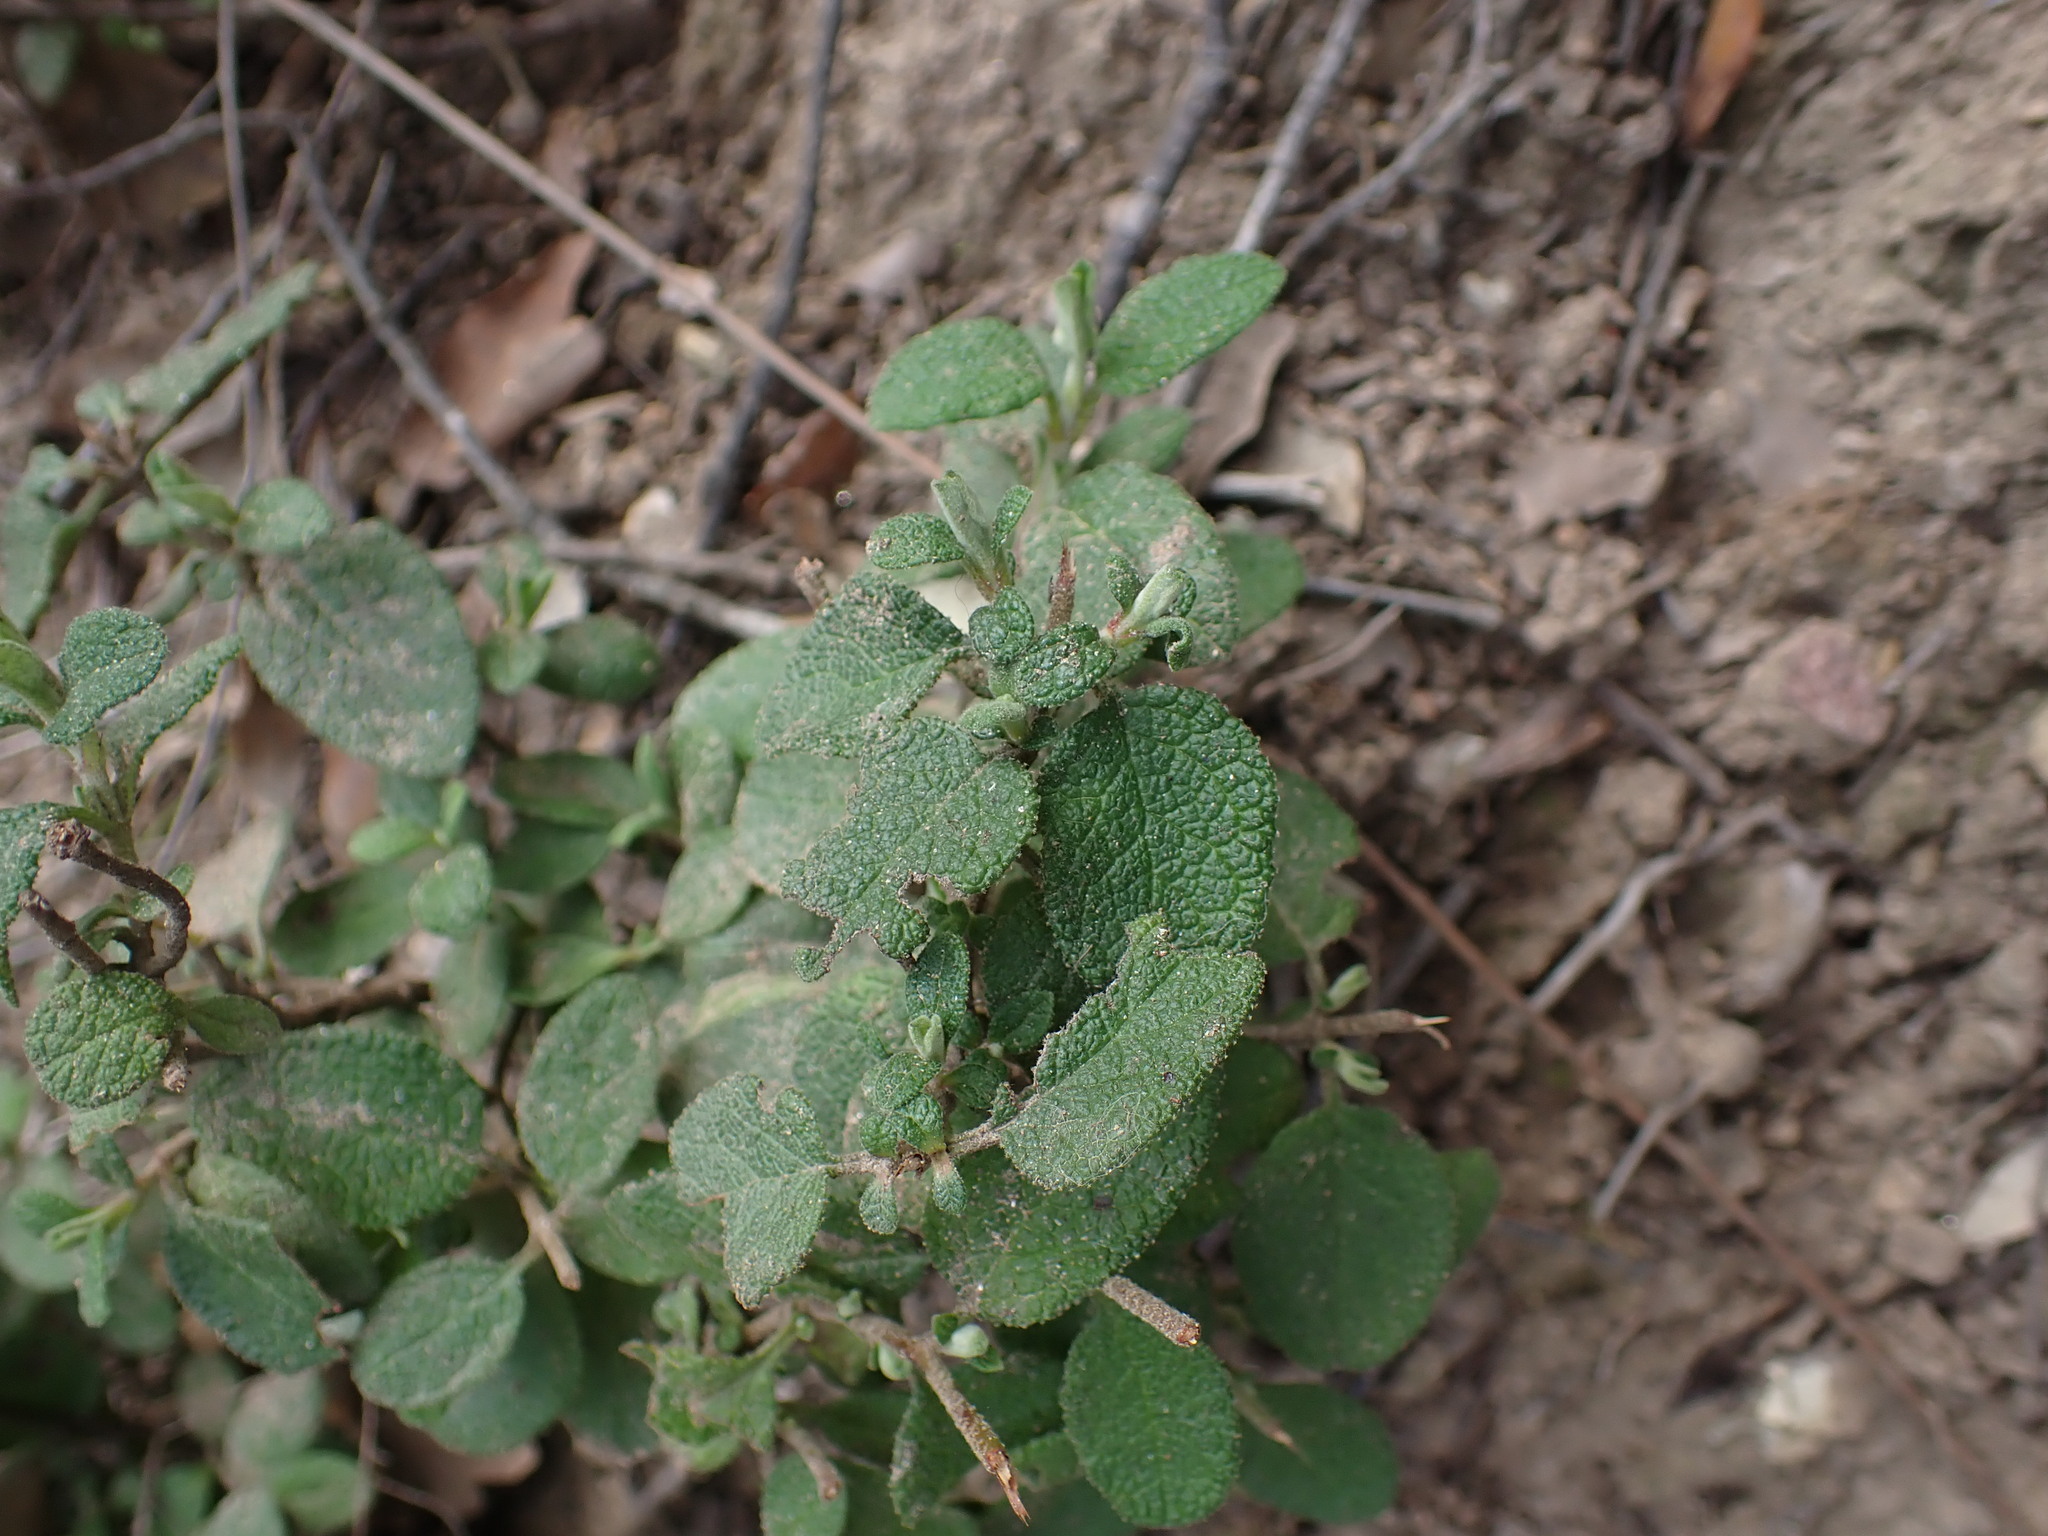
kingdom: Plantae
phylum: Tracheophyta
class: Magnoliopsida
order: Malvales
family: Cistaceae
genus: Cistus
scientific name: Cistus salviifolius
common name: Salvia cistus
